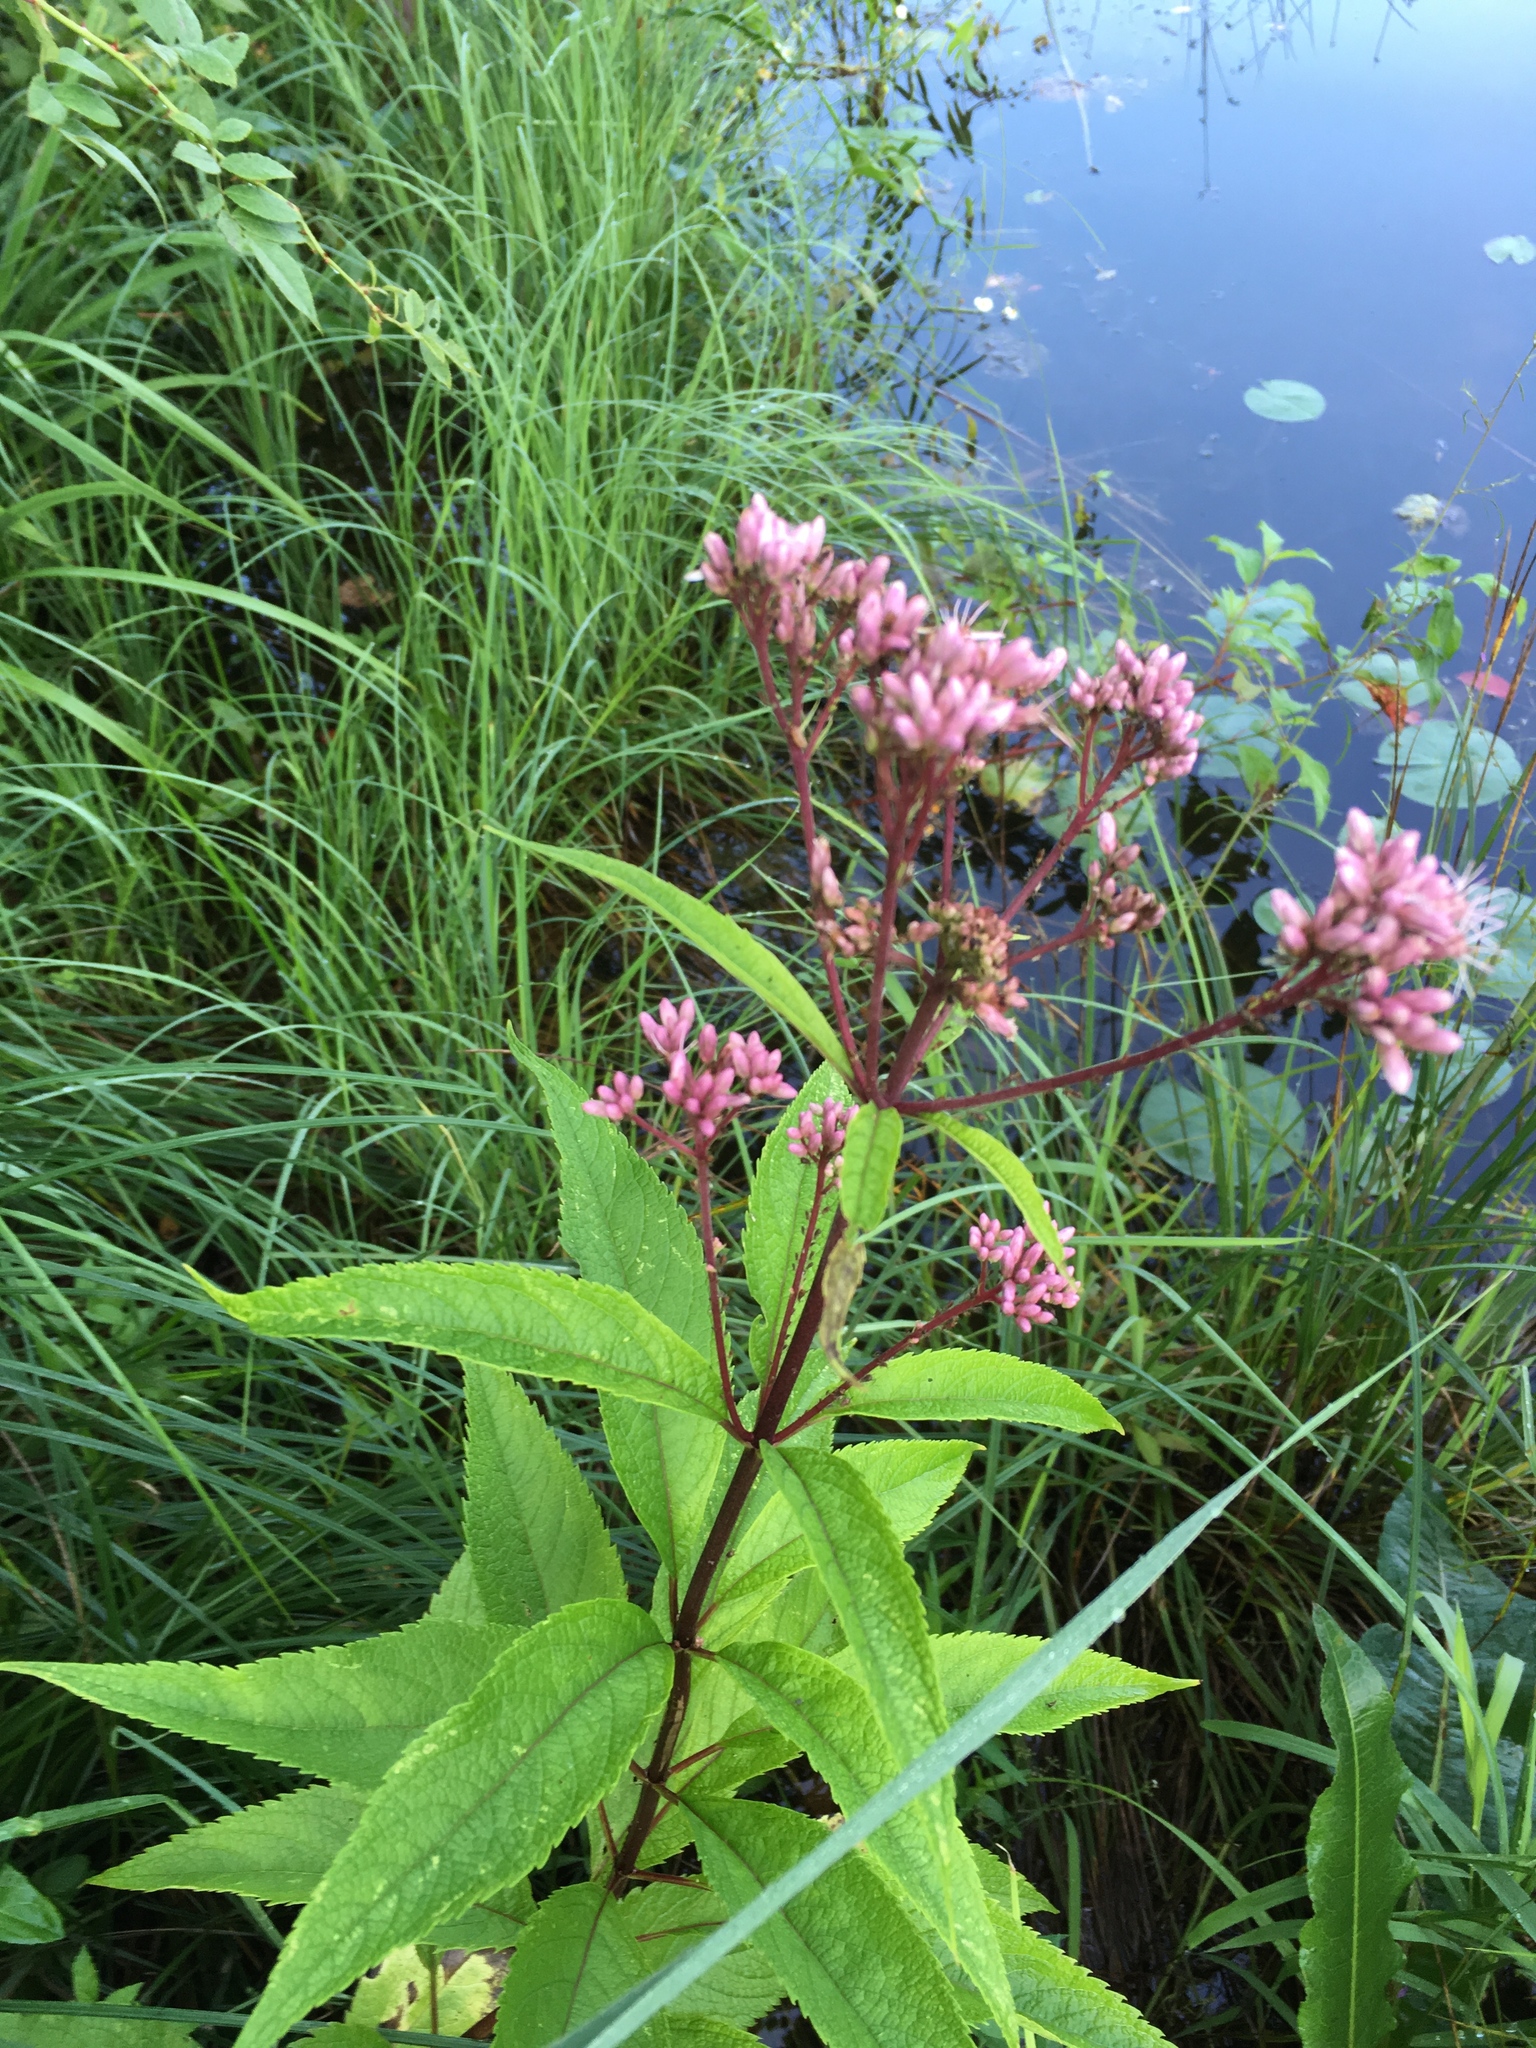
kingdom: Plantae
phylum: Tracheophyta
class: Magnoliopsida
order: Asterales
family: Asteraceae
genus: Eutrochium
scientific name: Eutrochium maculatum
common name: Spotted joe pye weed
